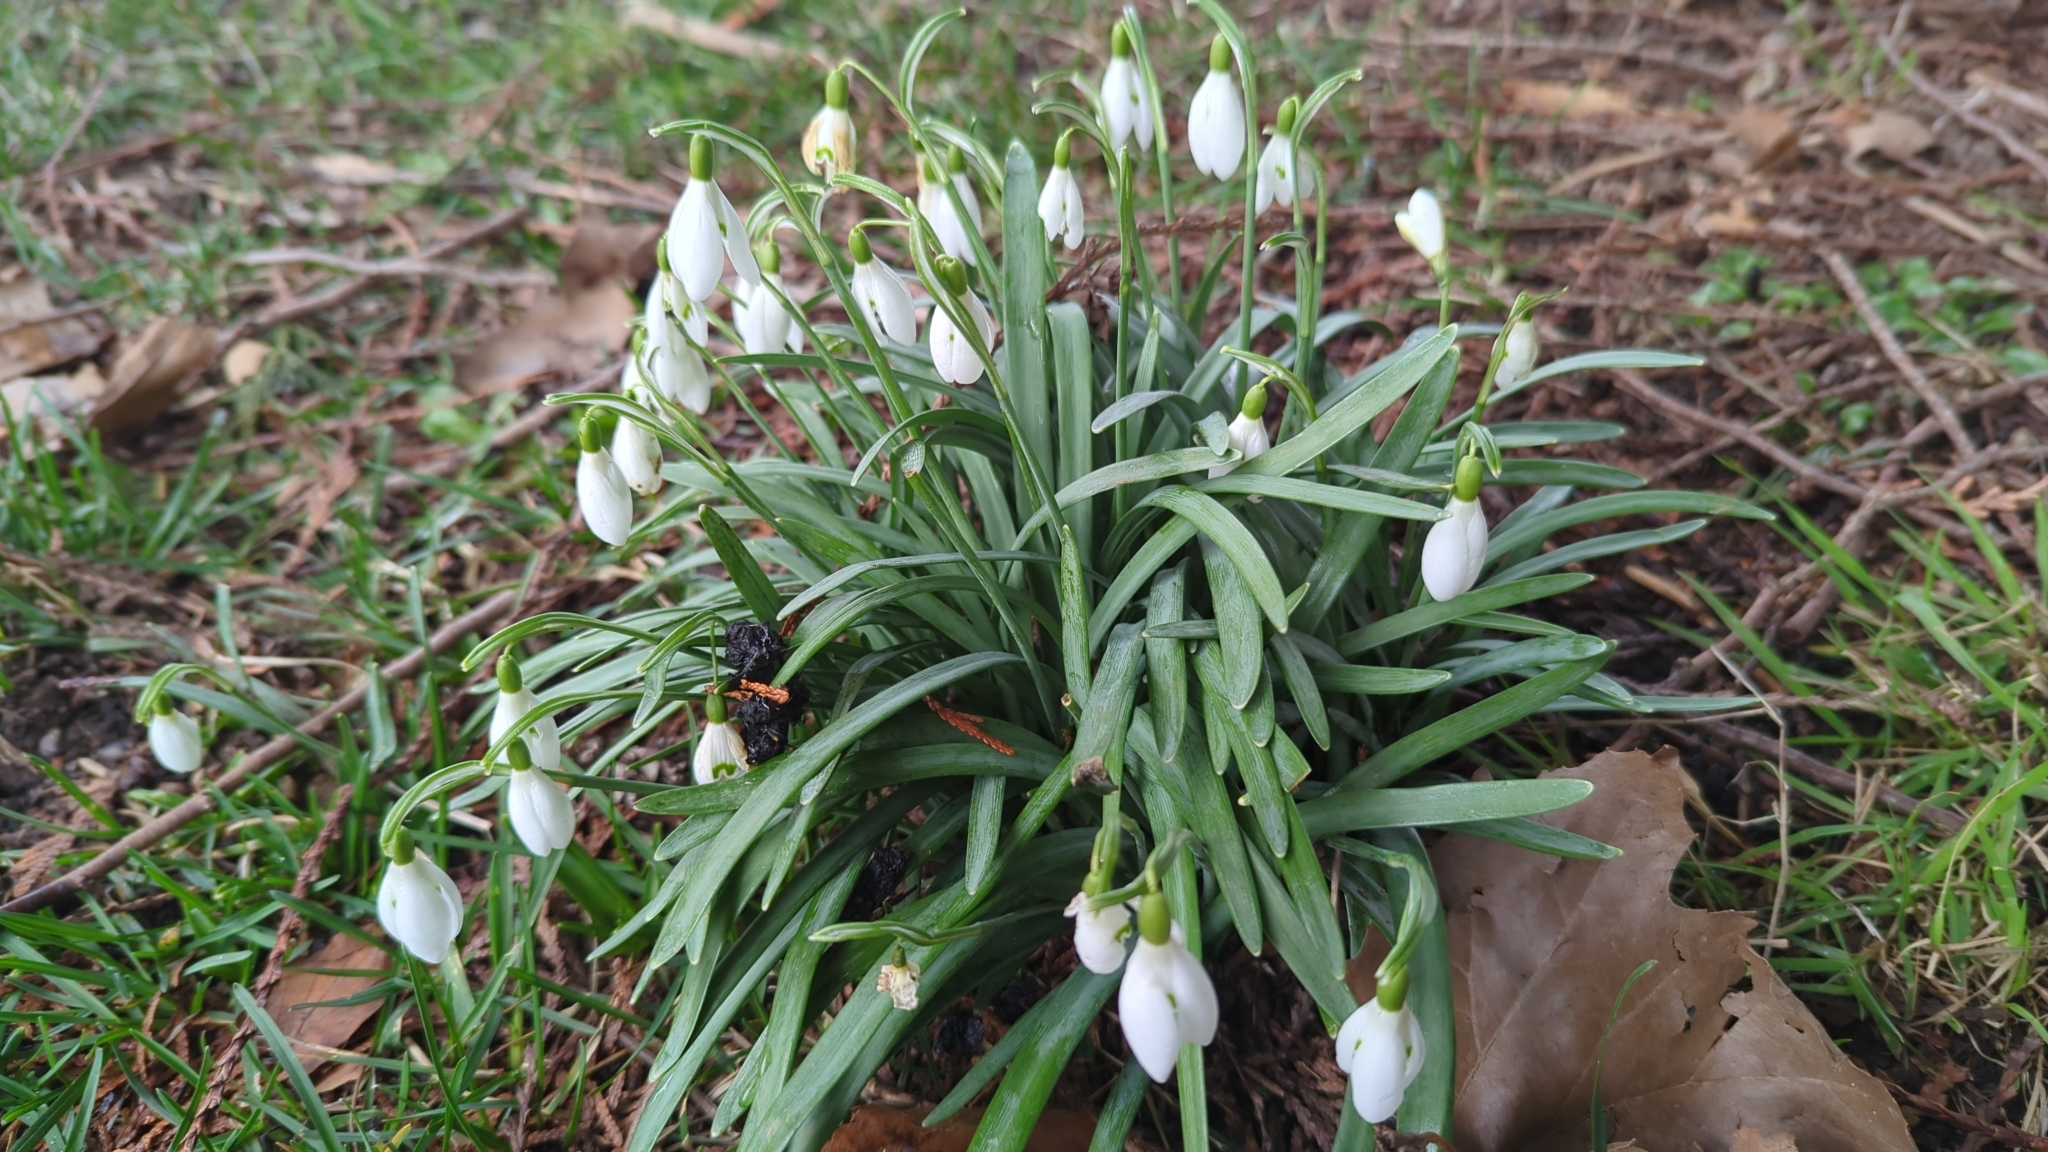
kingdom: Plantae
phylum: Tracheophyta
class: Liliopsida
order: Asparagales
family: Amaryllidaceae
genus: Galanthus
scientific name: Galanthus nivalis
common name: Snowdrop
